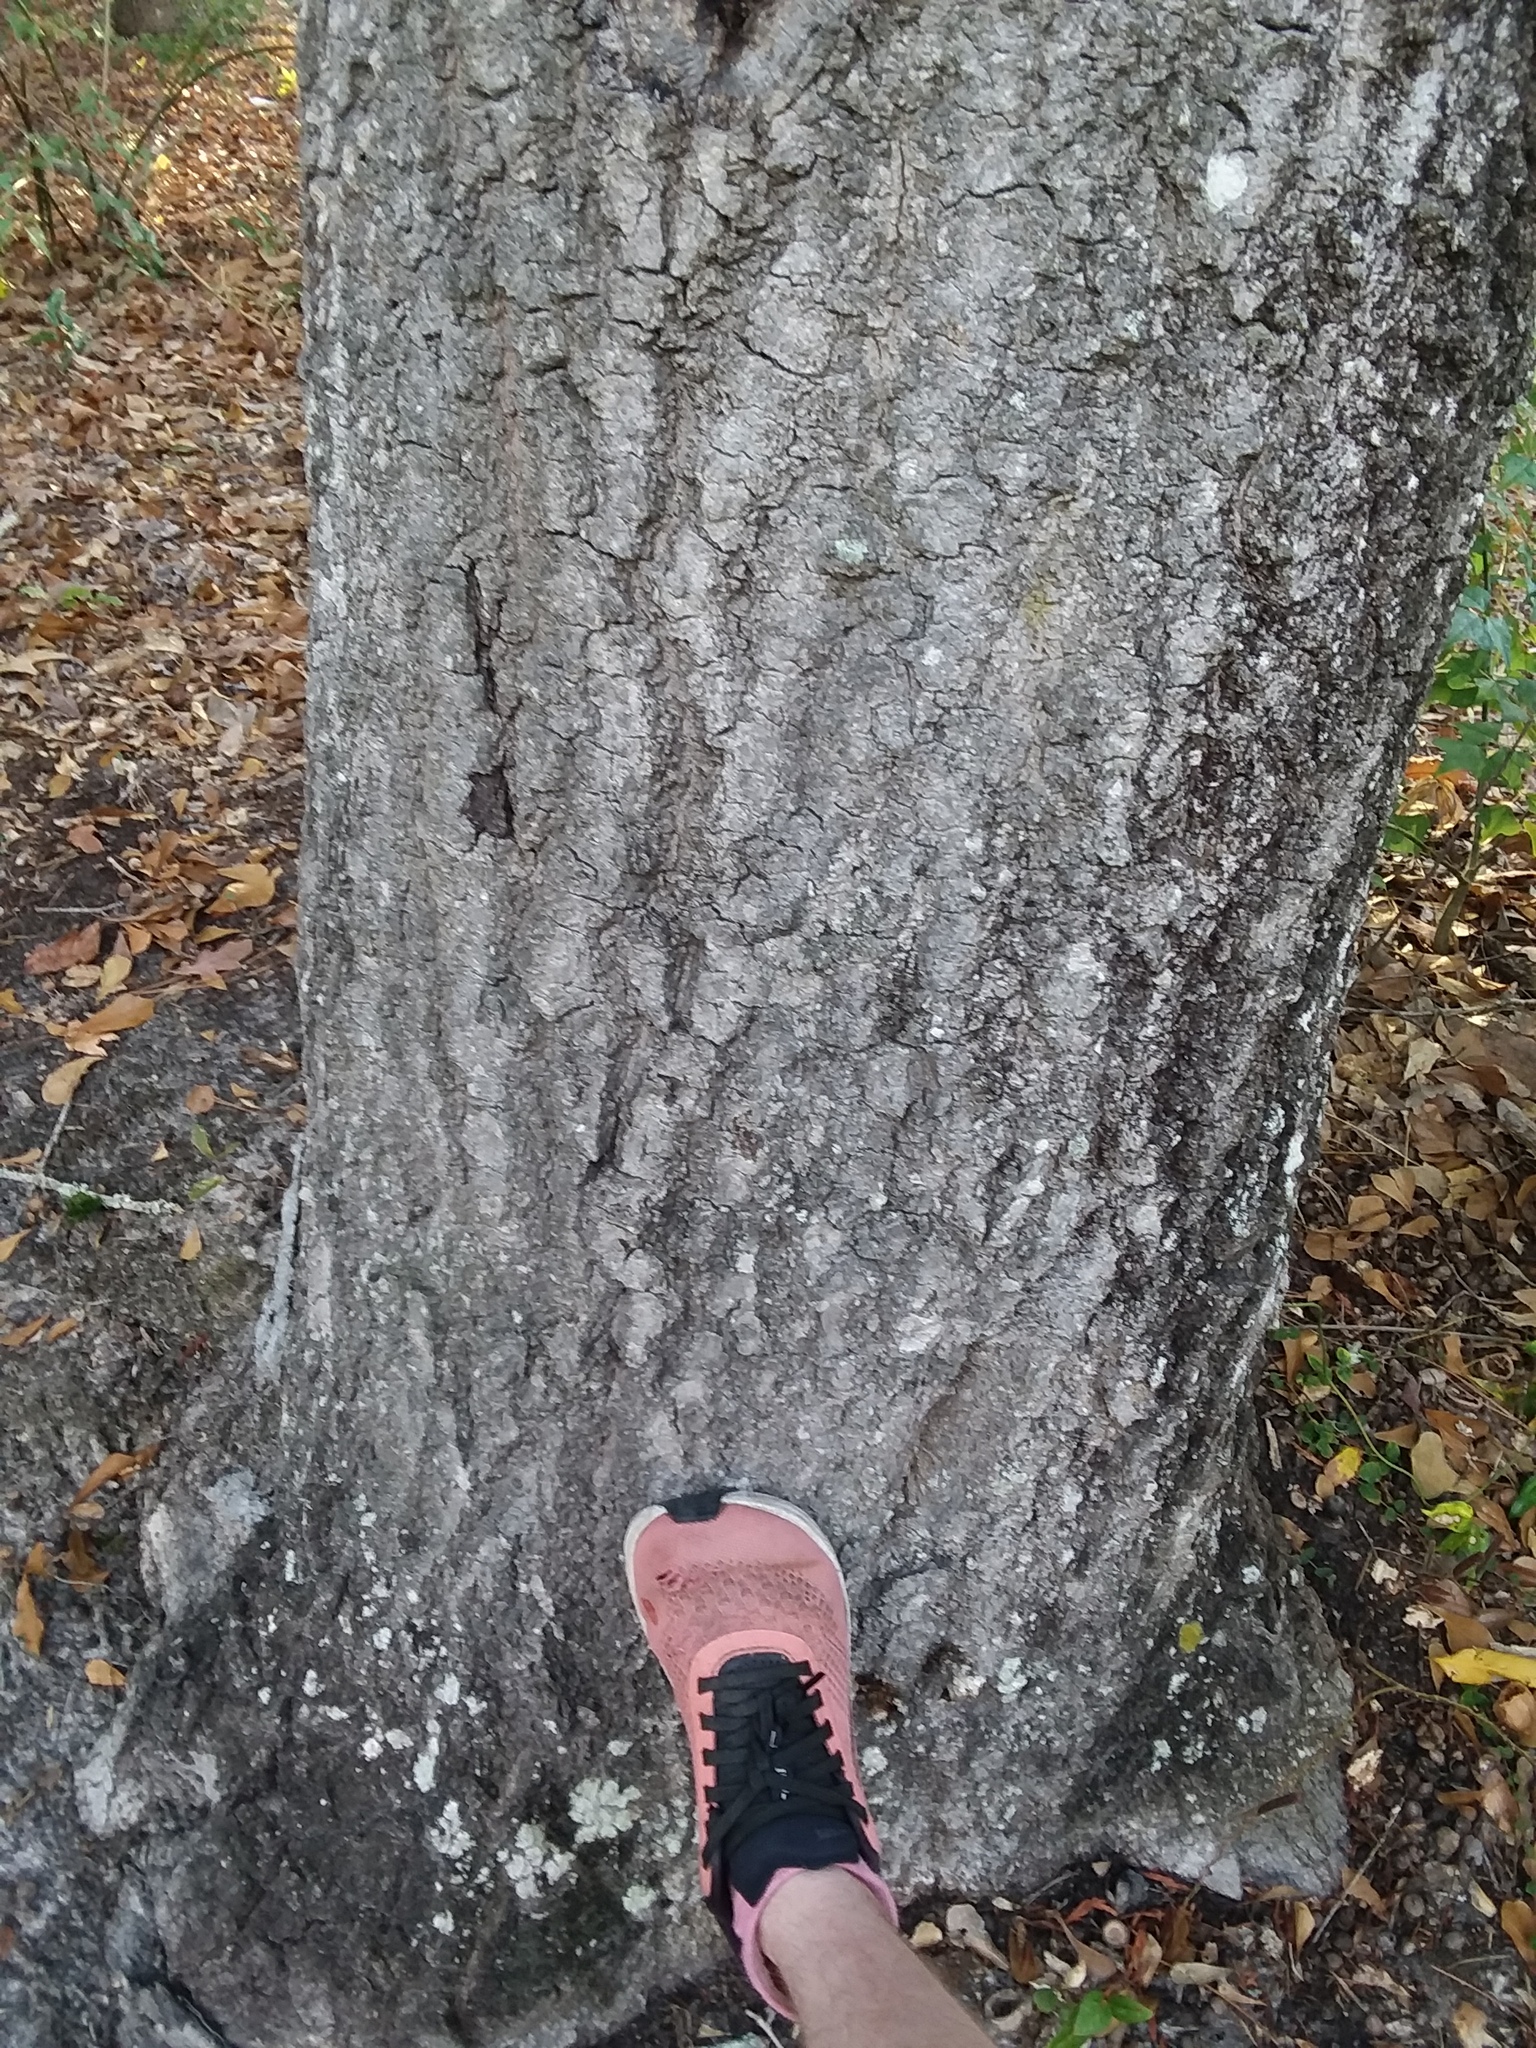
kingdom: Plantae
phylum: Tracheophyta
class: Magnoliopsida
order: Fagales
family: Fagaceae
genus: Quercus
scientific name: Quercus nigra
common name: Water oak
